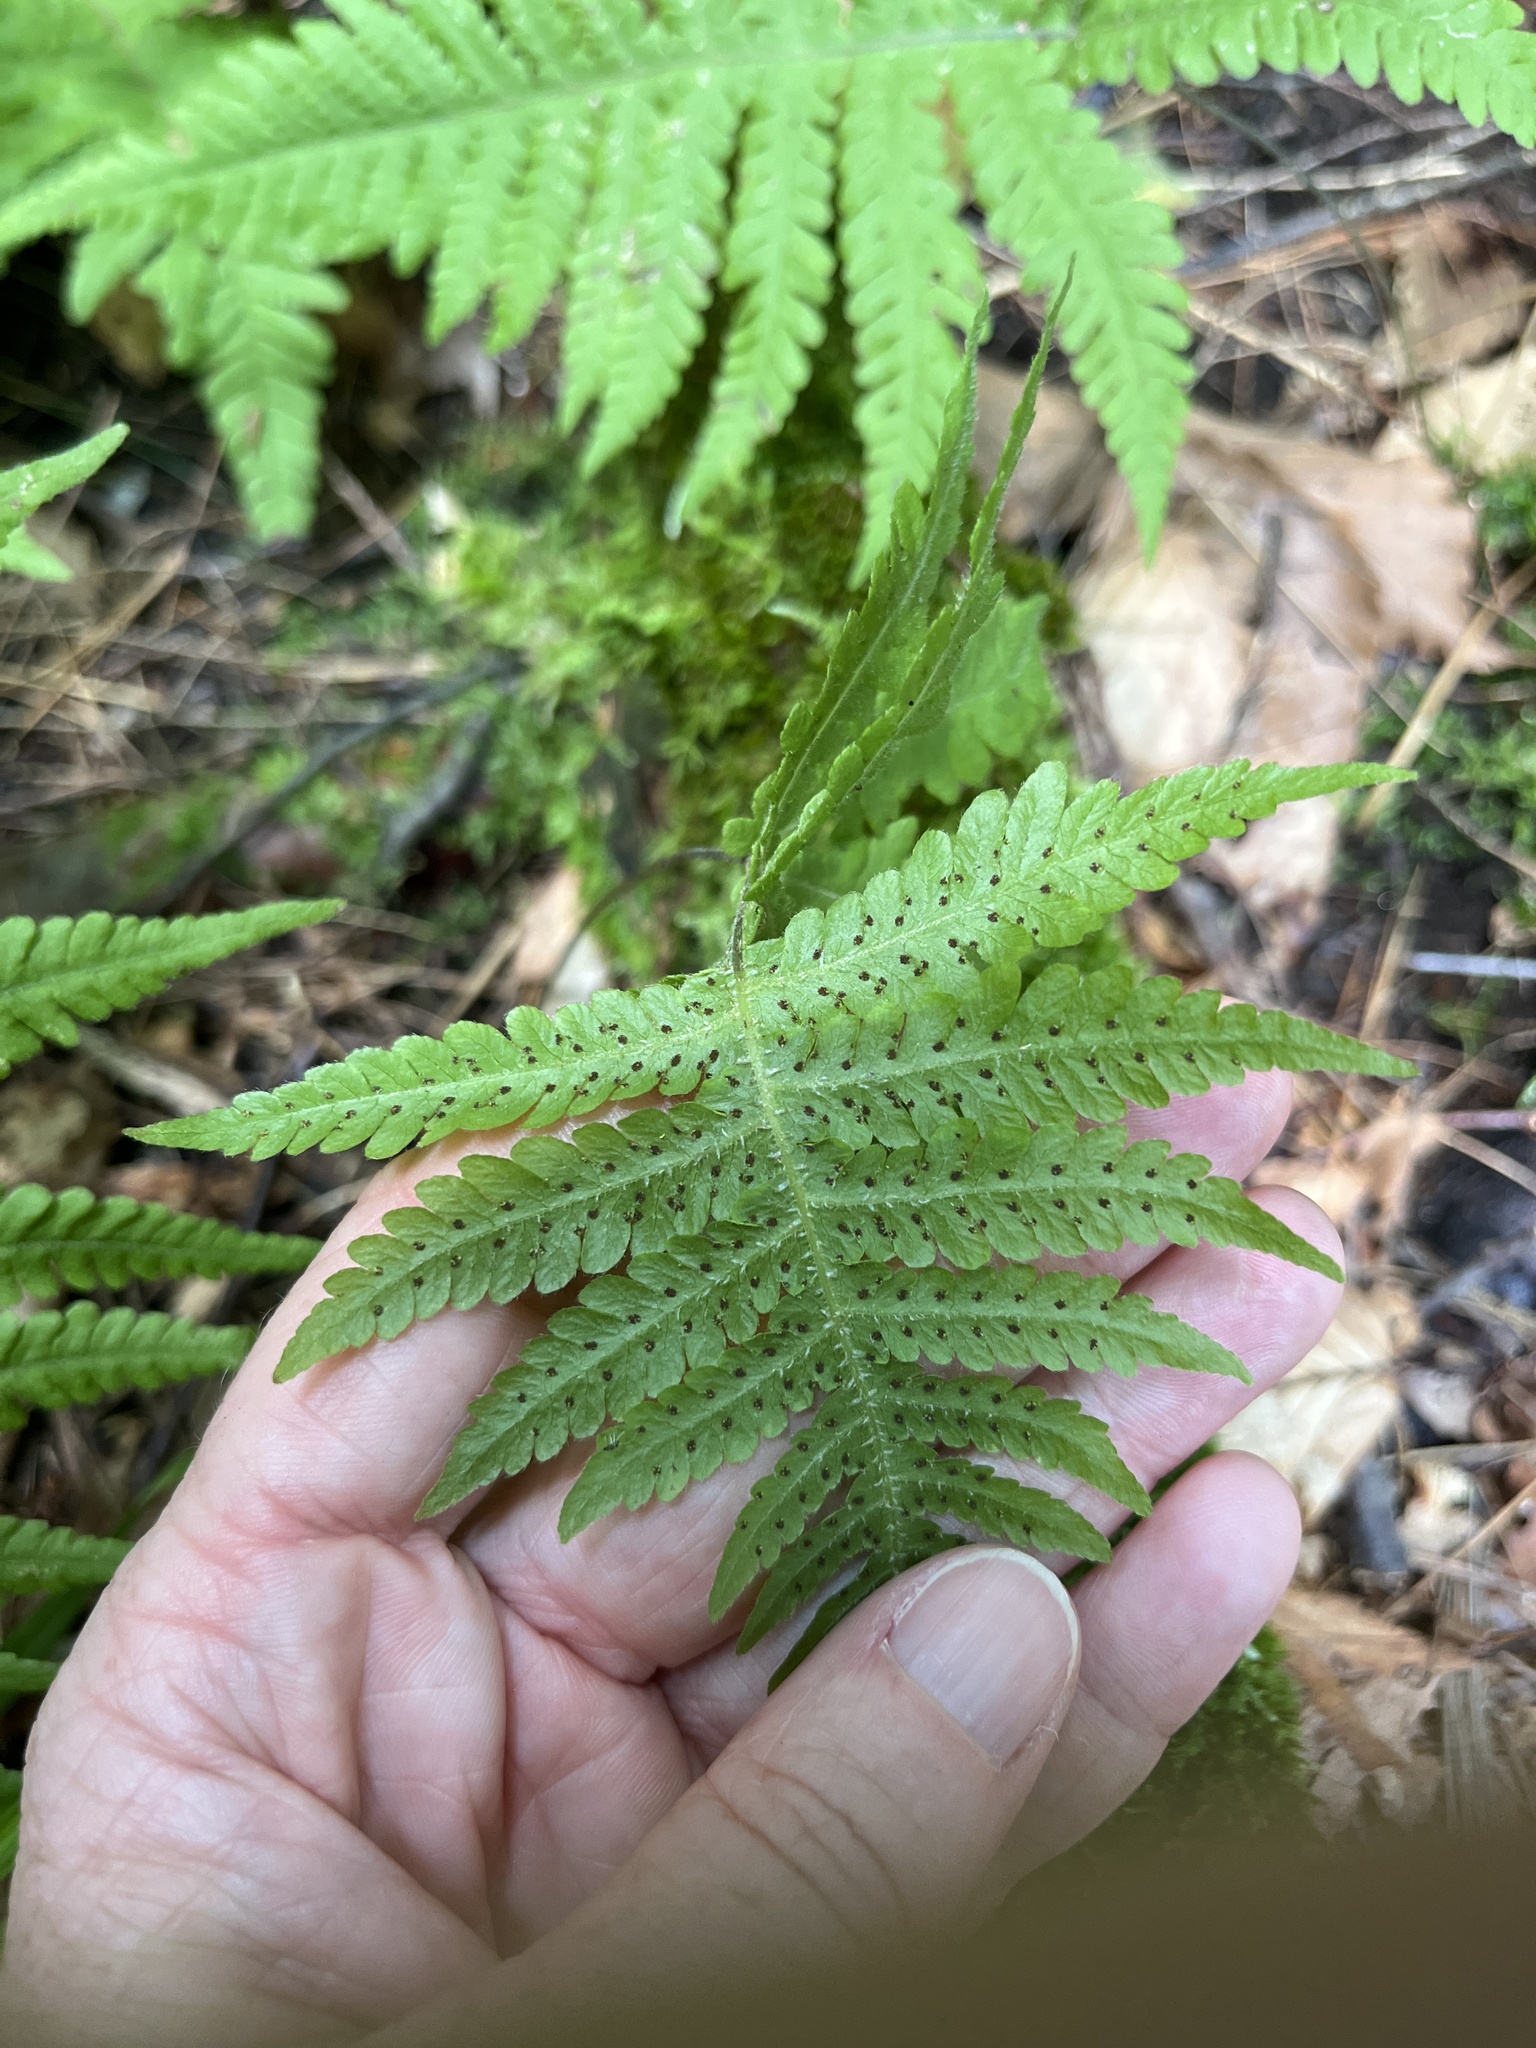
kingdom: Plantae
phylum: Tracheophyta
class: Polypodiopsida
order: Polypodiales
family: Thelypteridaceae
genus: Phegopteris
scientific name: Phegopteris connectilis
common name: Beech fern
